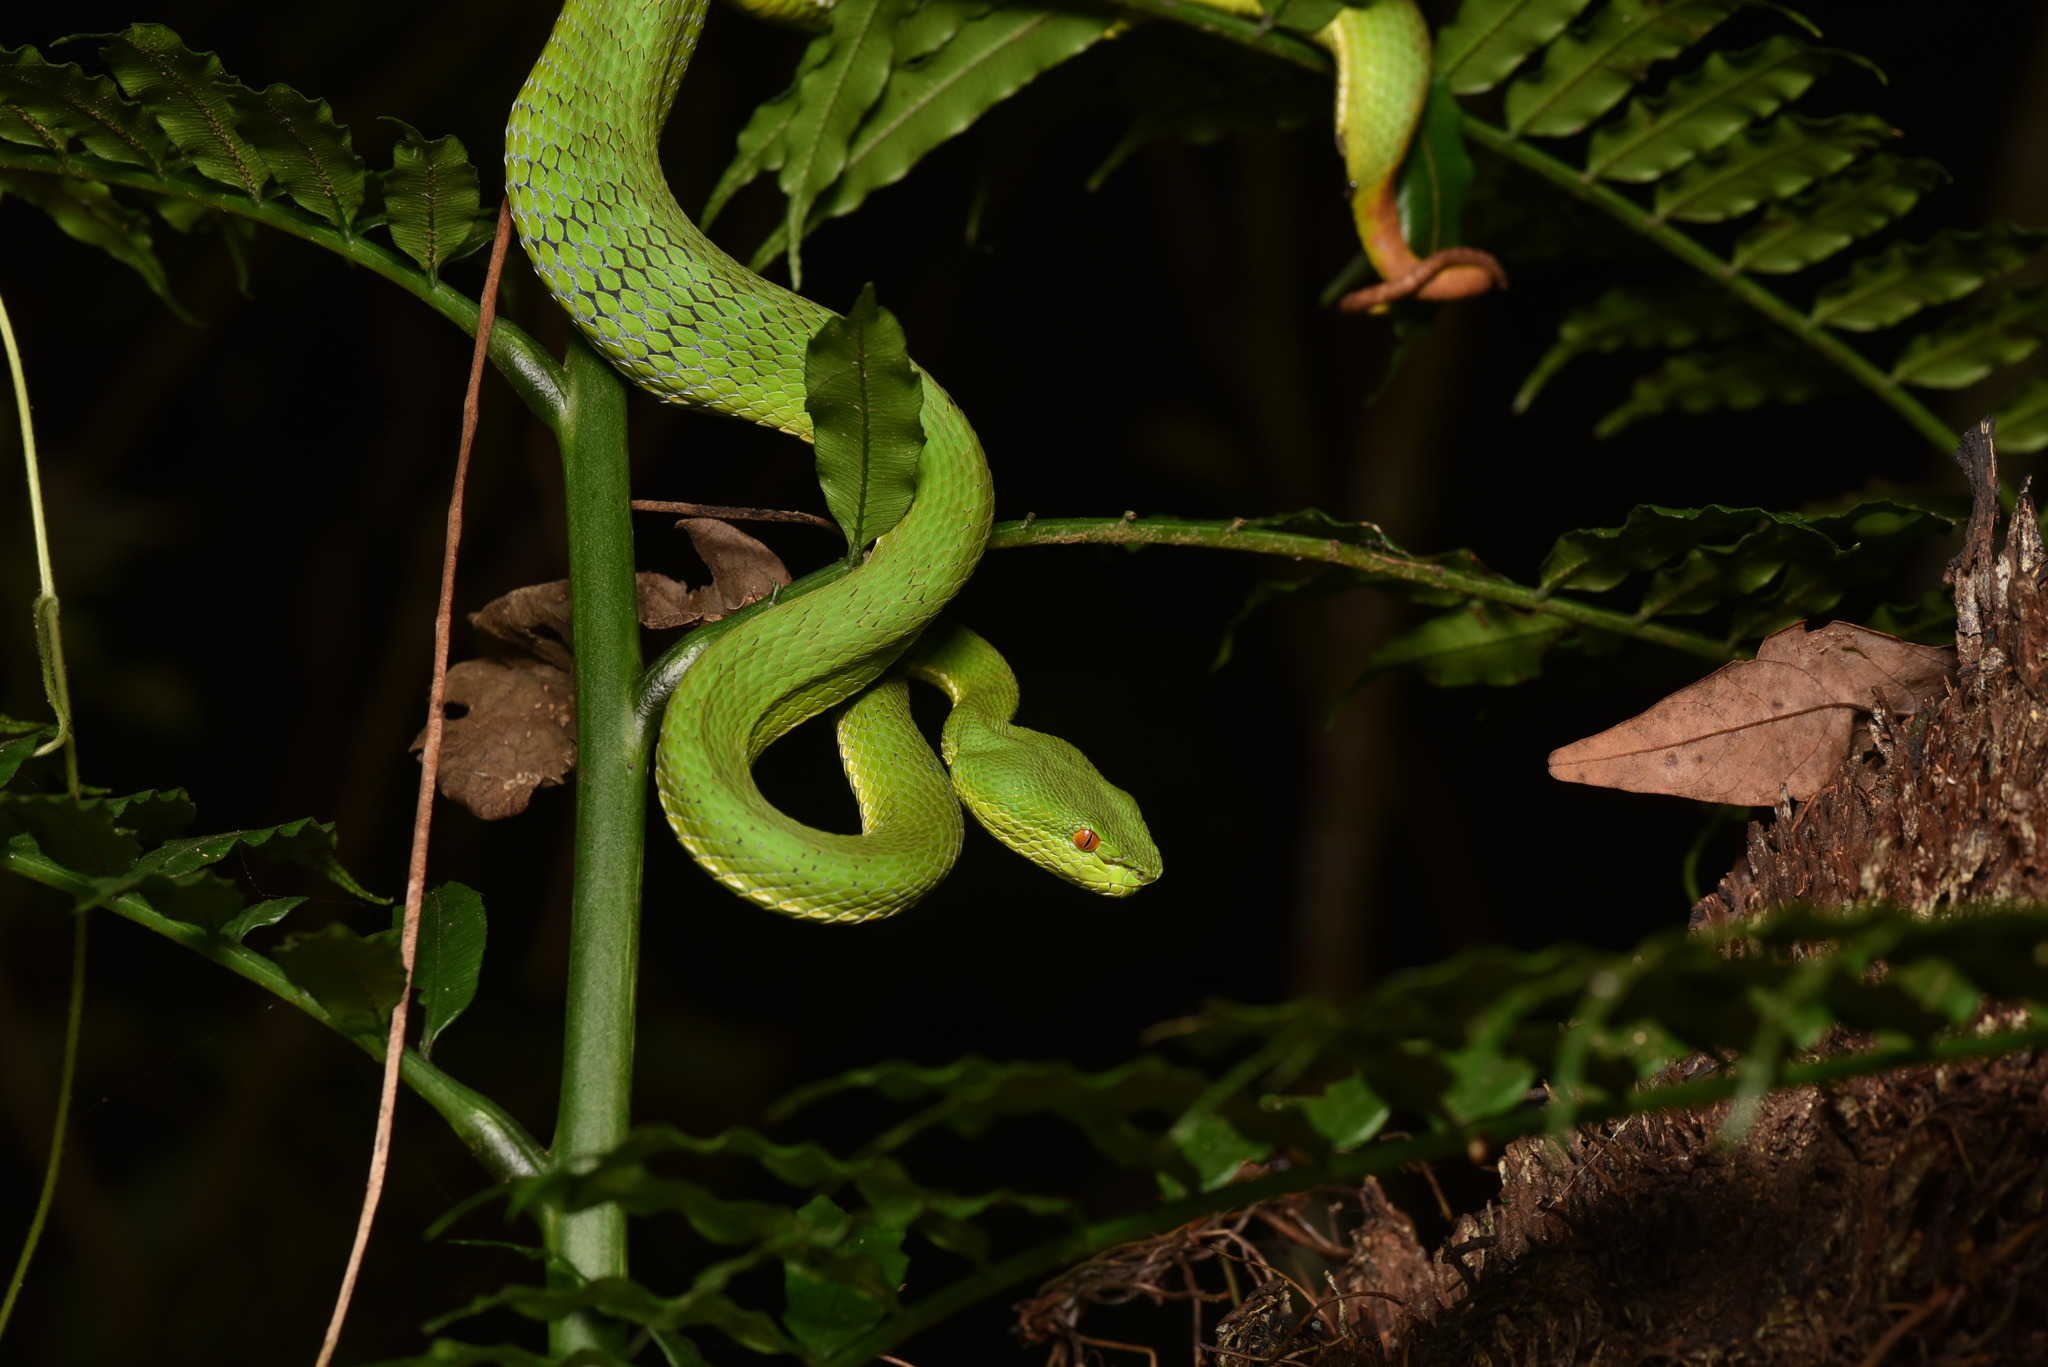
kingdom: Animalia
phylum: Chordata
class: Squamata
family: Viperidae
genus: Trimeresurus
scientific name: Trimeresurus stejnegeri
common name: Chen’s bamboo pit viper
